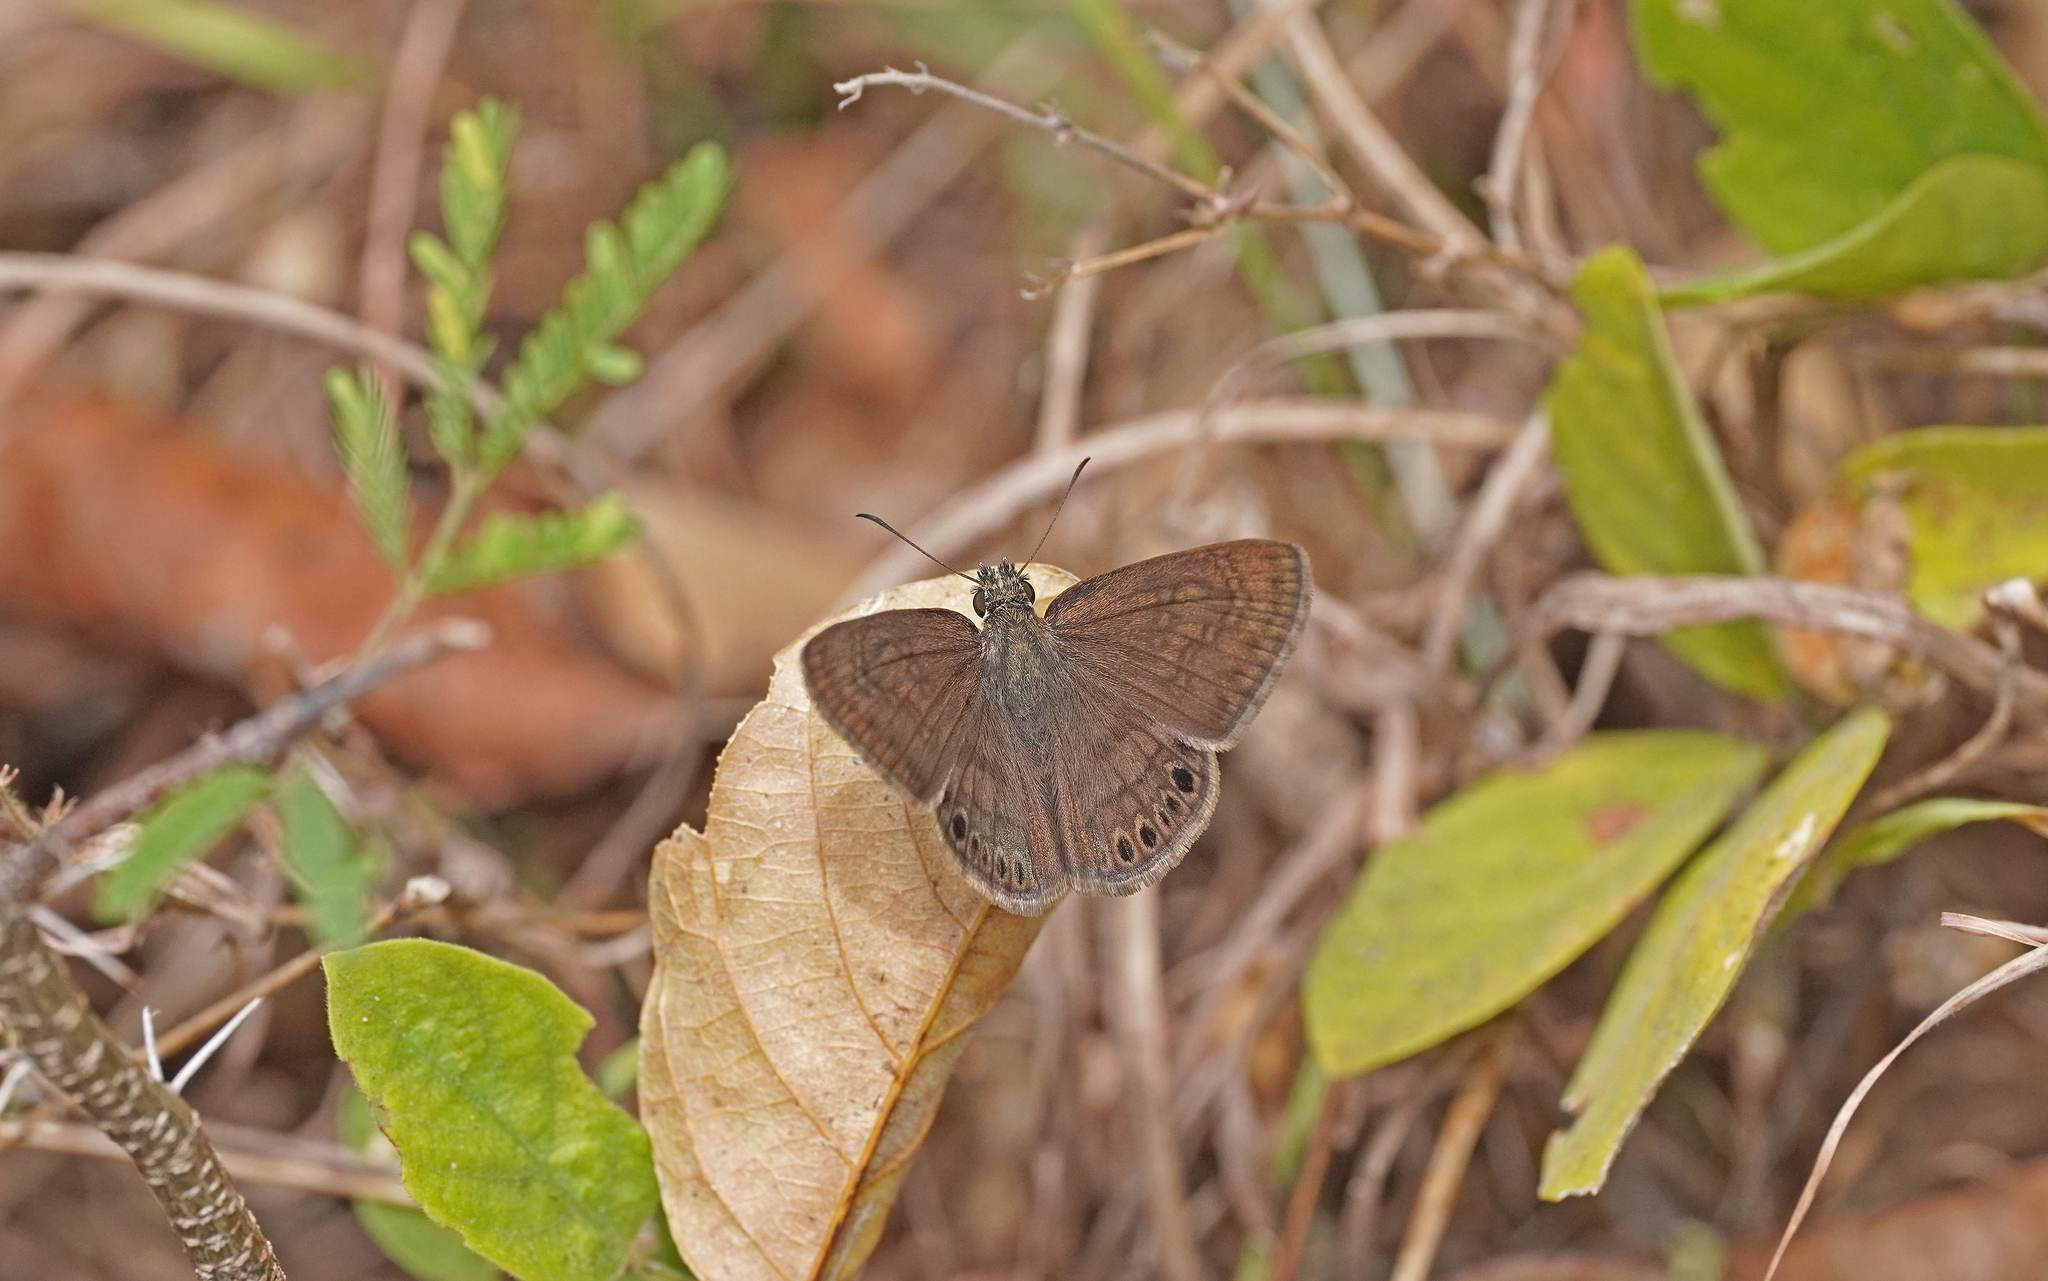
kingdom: Animalia
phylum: Arthropoda
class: Insecta
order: Lepidoptera
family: Hesperiidae
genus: Timochreon
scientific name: Timochreon satyrus
